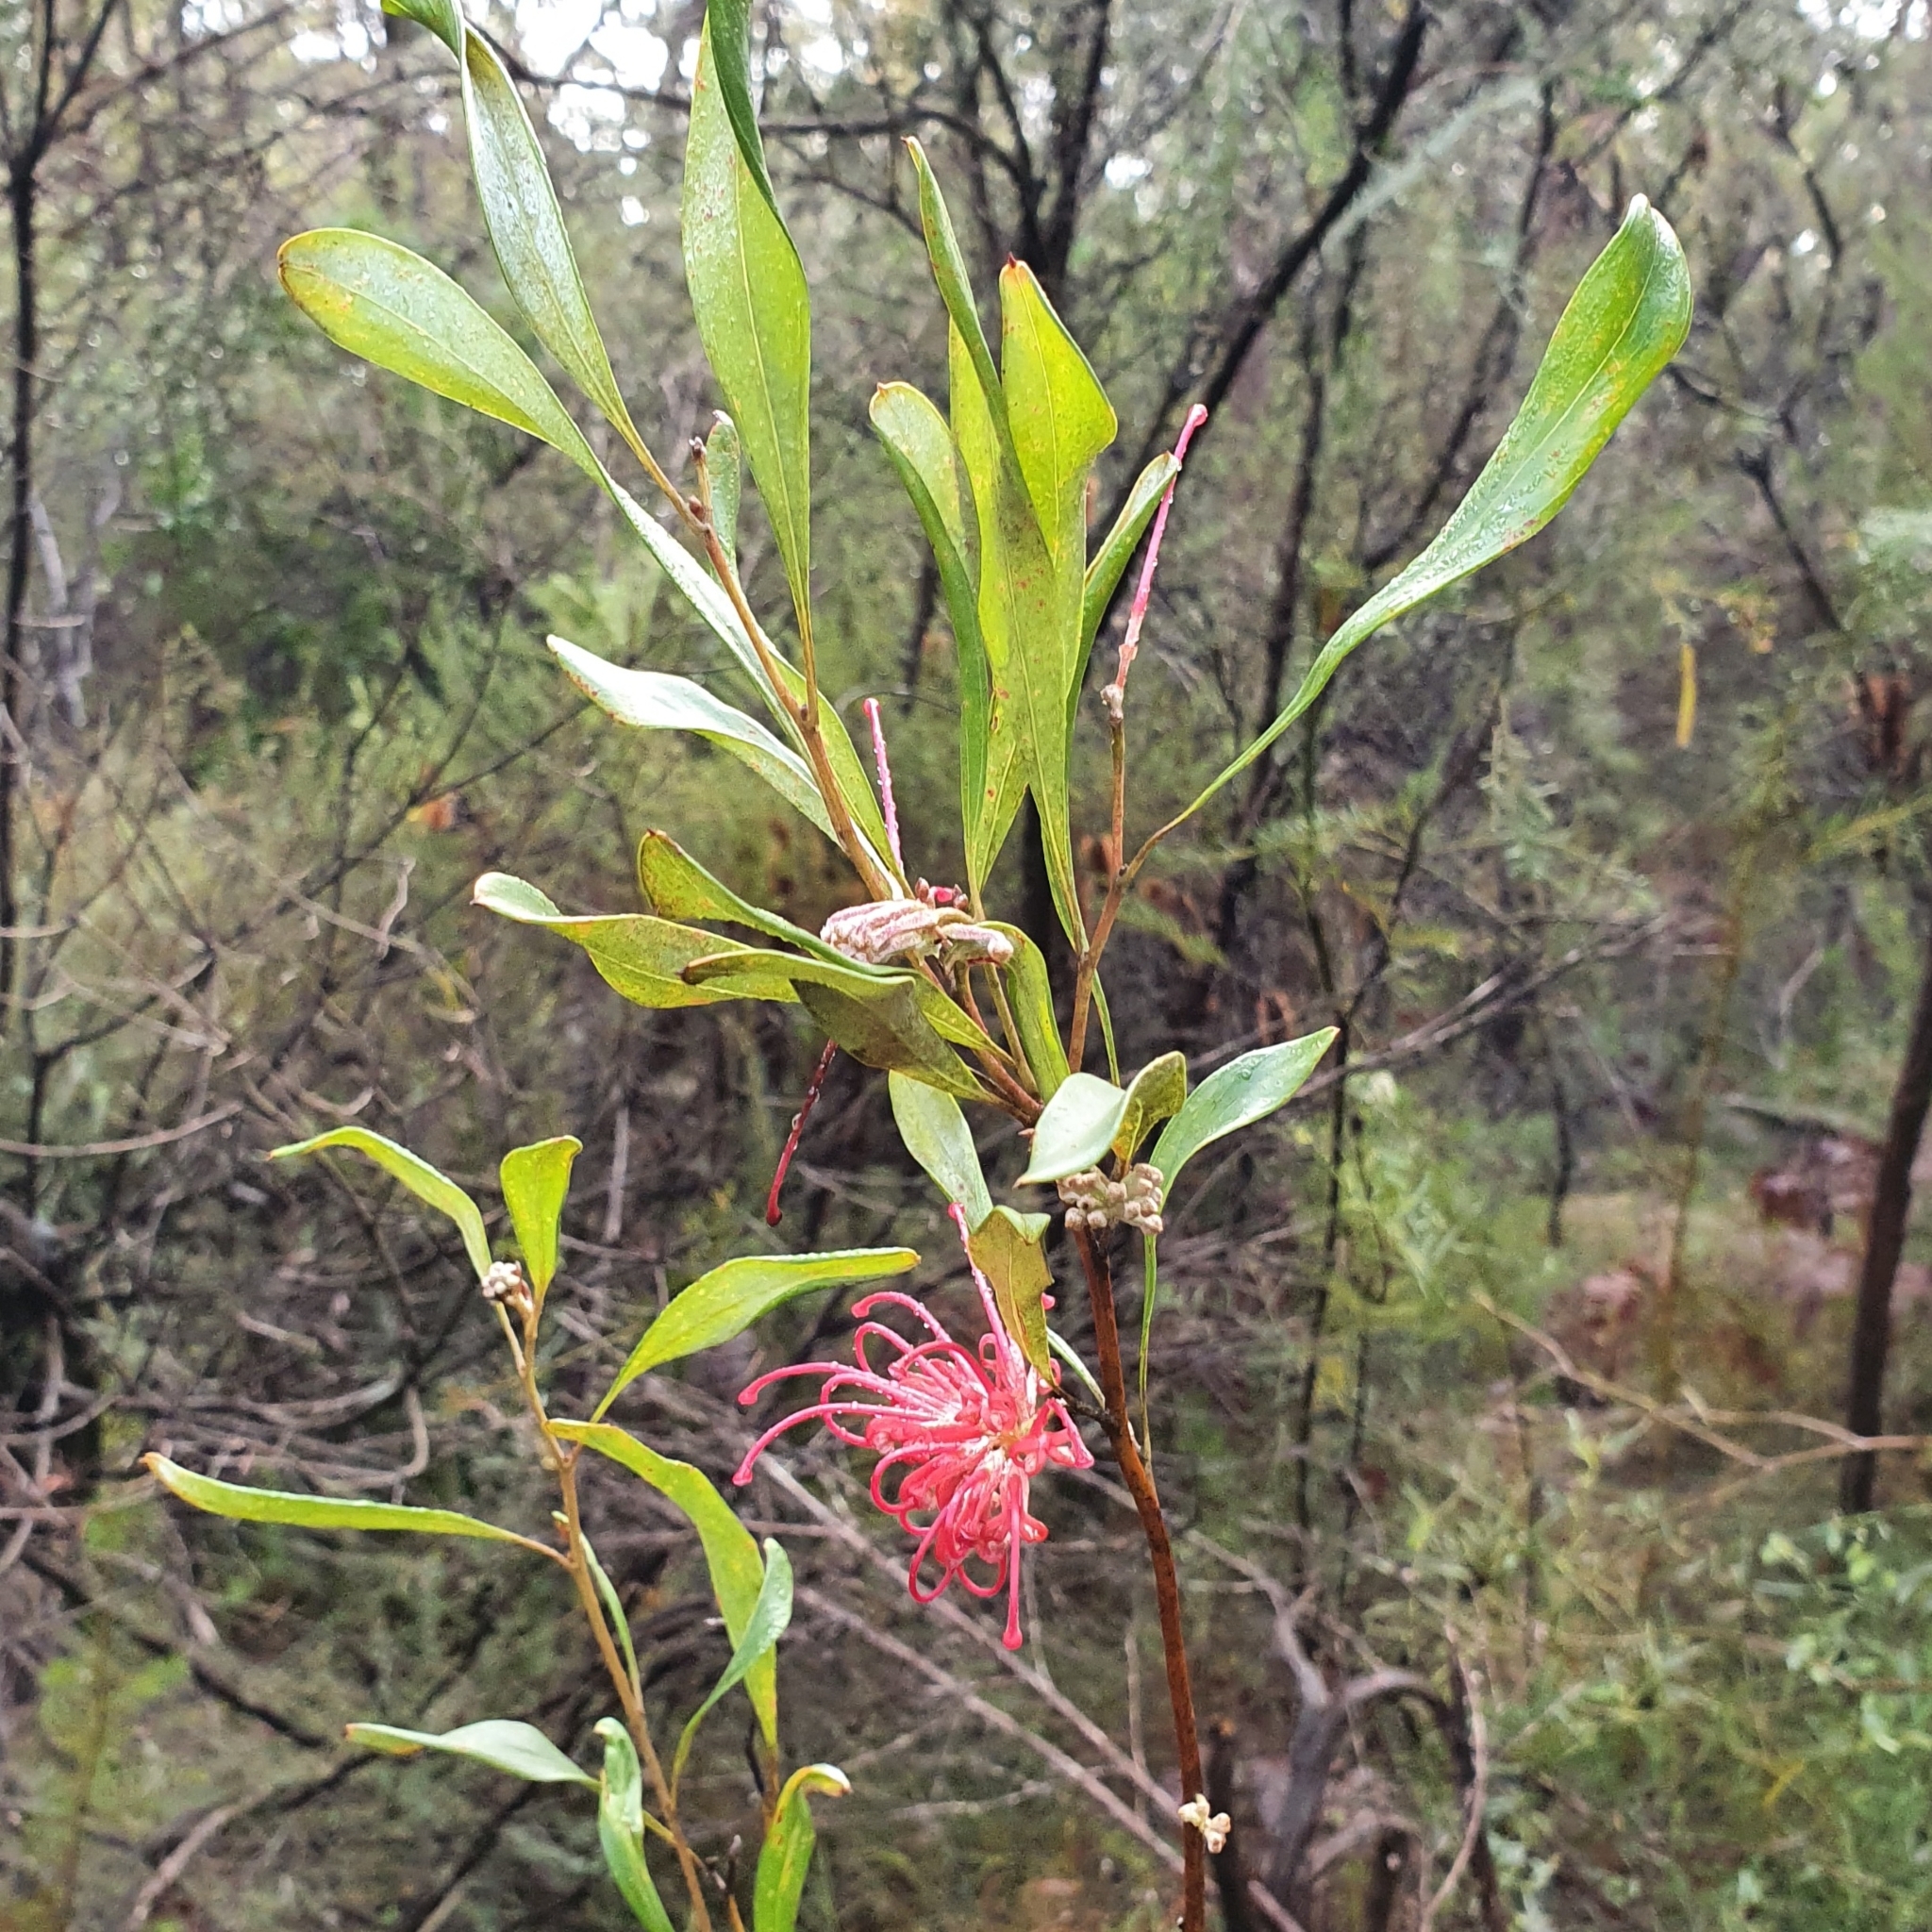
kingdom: Plantae
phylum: Tracheophyta
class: Magnoliopsida
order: Proteales
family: Proteaceae
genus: Grevillea
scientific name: Grevillea oleoides
